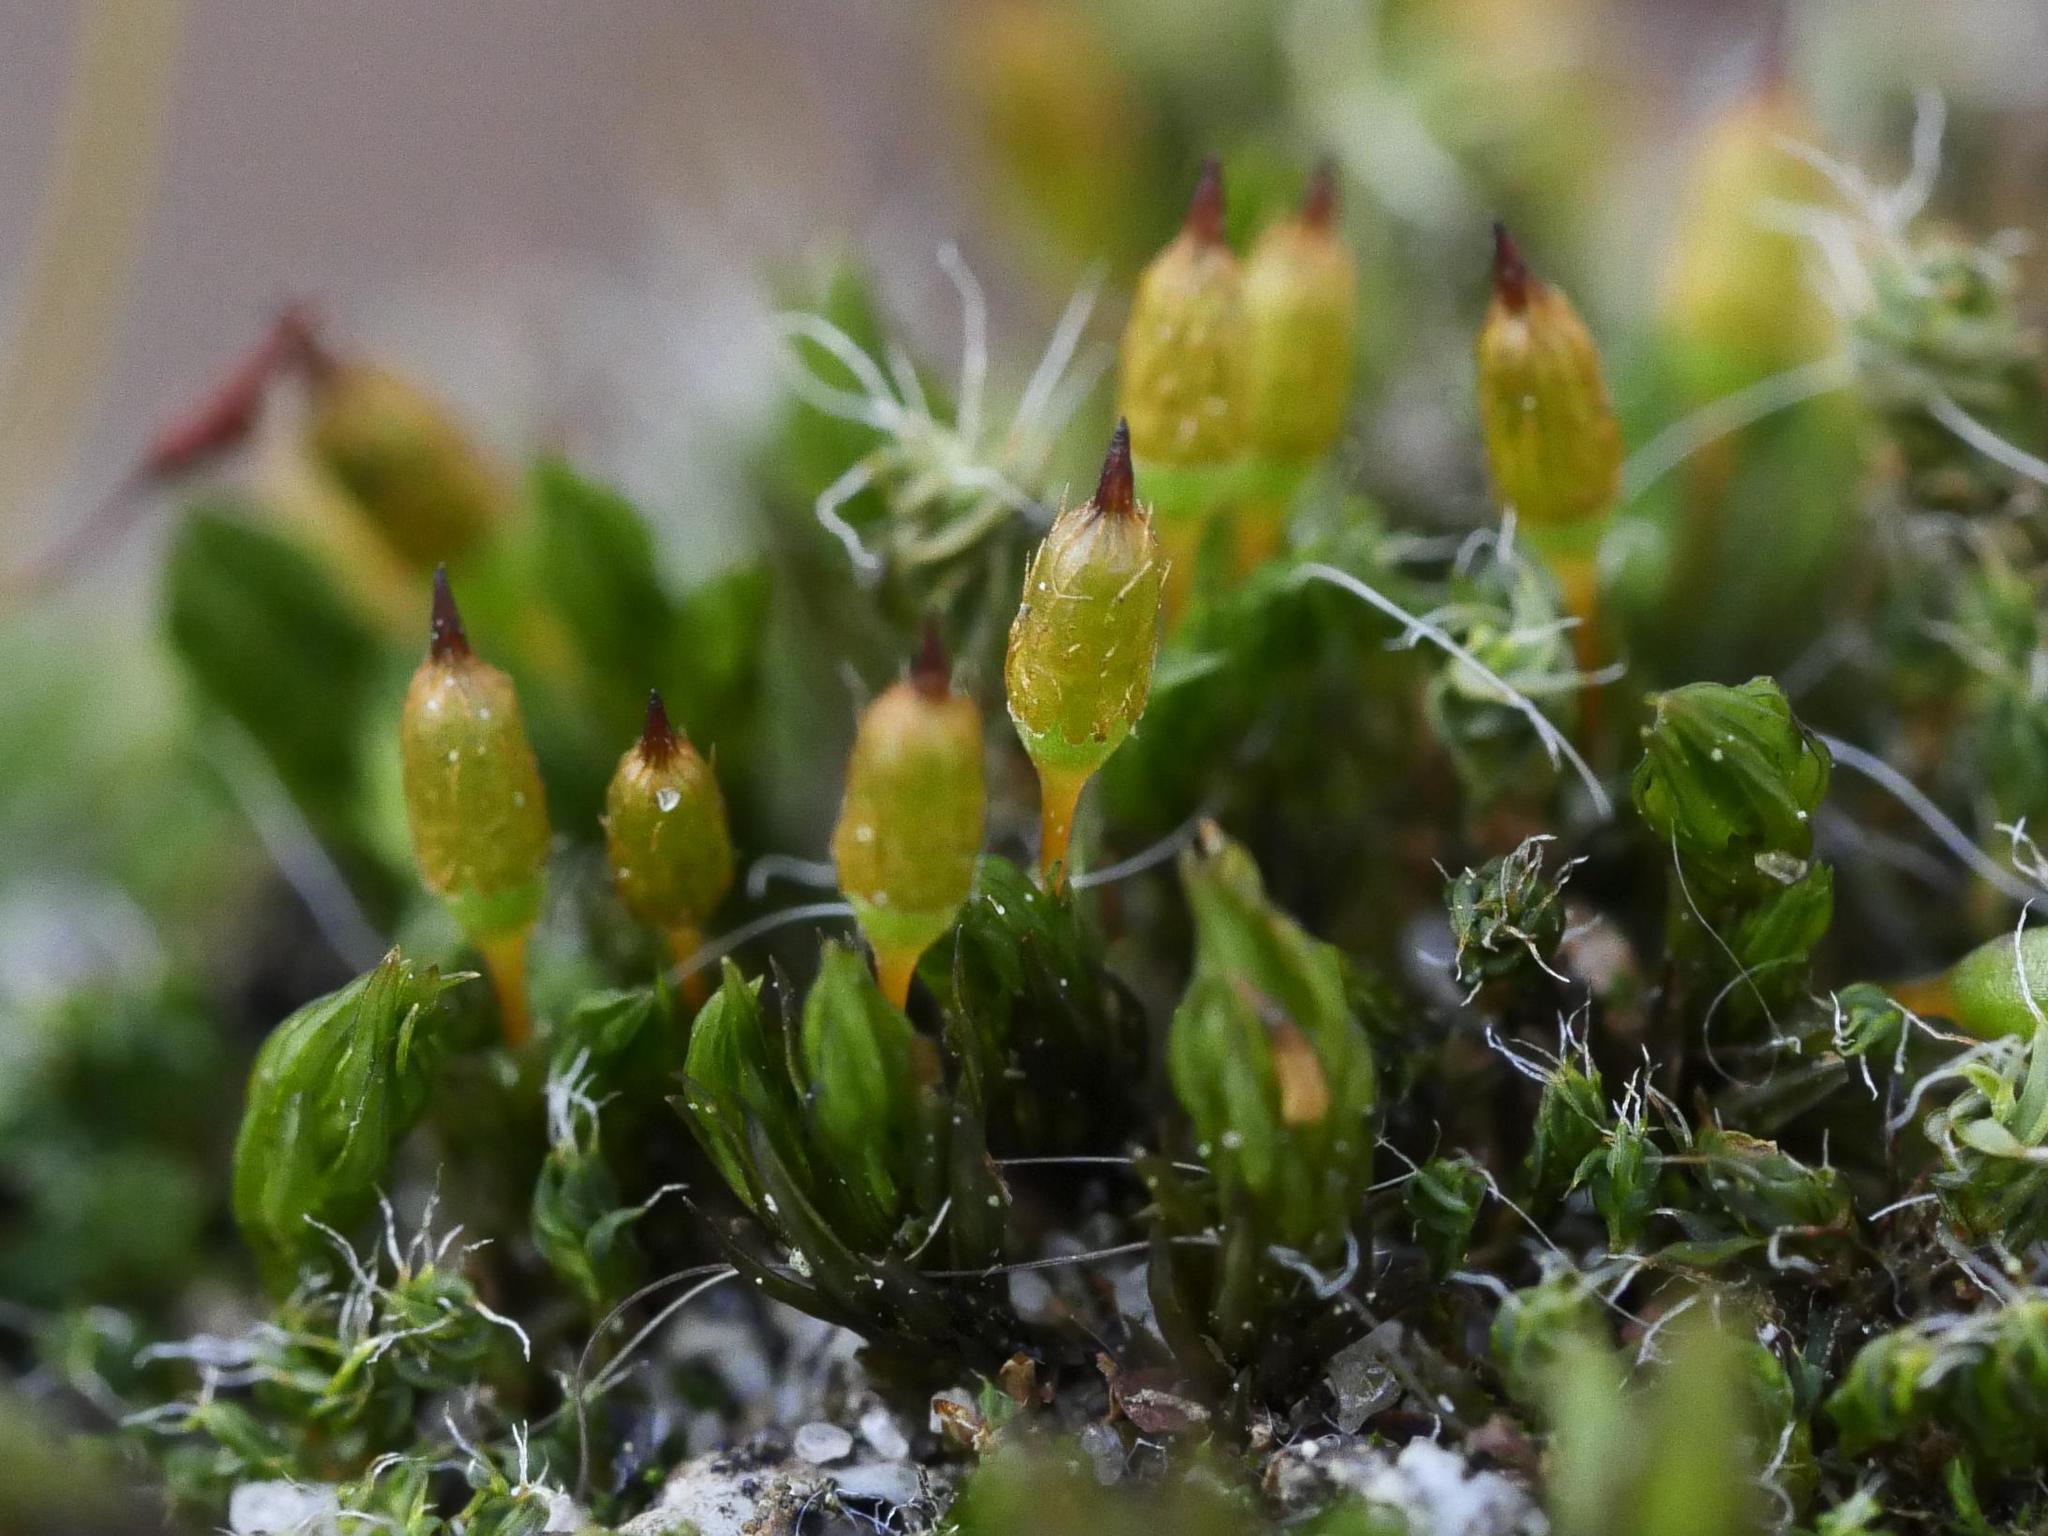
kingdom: Plantae
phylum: Bryophyta
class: Bryopsida
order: Orthotrichales
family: Orthotrichaceae
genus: Orthotrichum
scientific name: Orthotrichum anomalum
